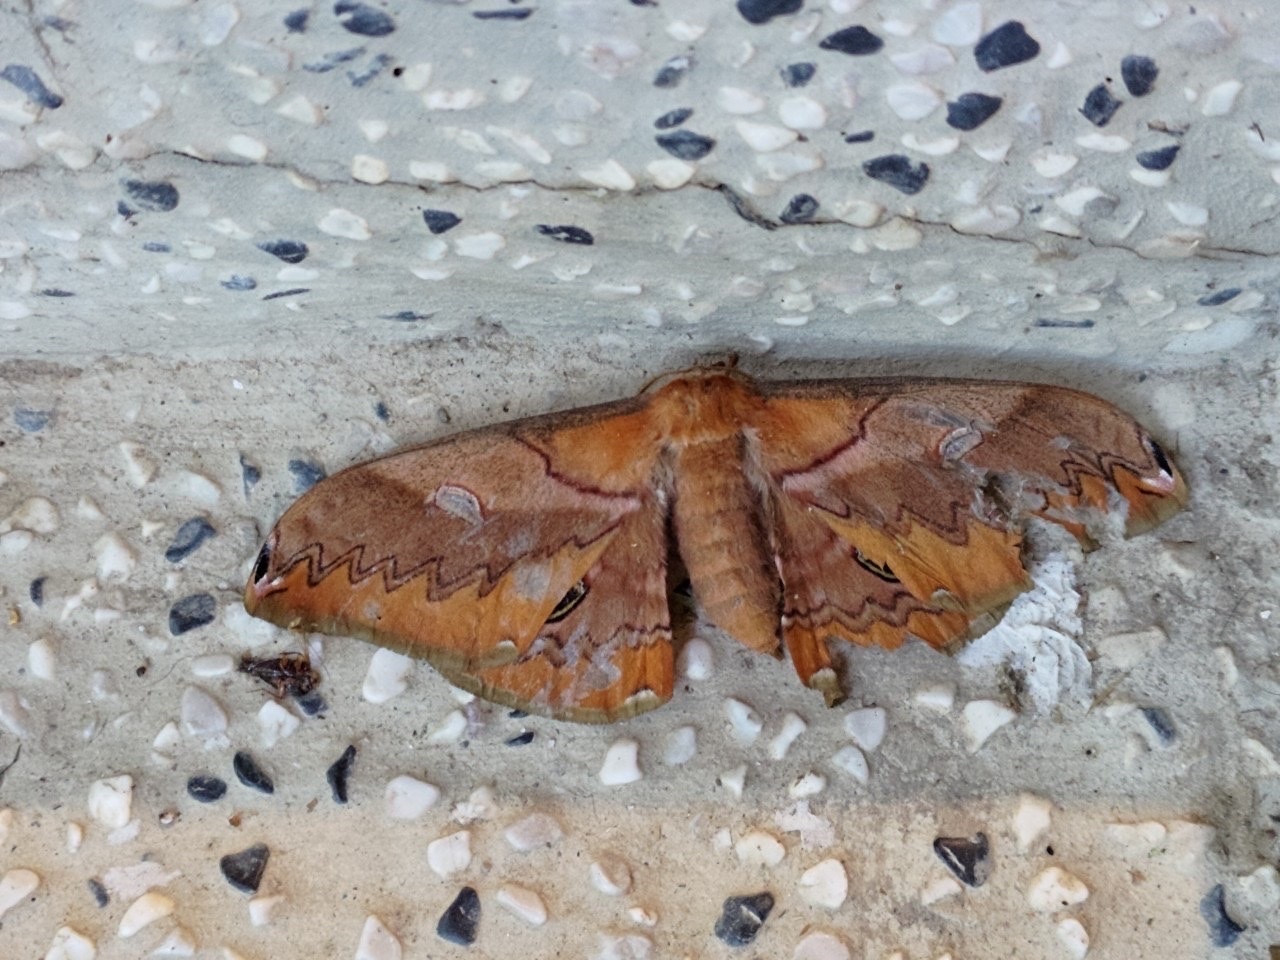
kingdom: Animalia
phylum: Arthropoda
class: Insecta
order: Lepidoptera
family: Saturniidae
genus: Saturnia
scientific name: Saturnia japonica
